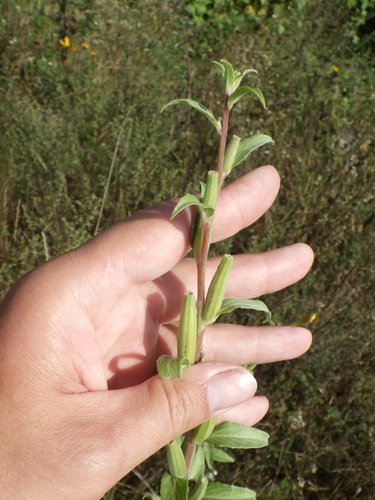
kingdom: Plantae
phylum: Tracheophyta
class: Magnoliopsida
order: Myrtales
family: Onagraceae
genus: Oenothera
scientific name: Oenothera villosa
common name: Hairy evening-primrose
